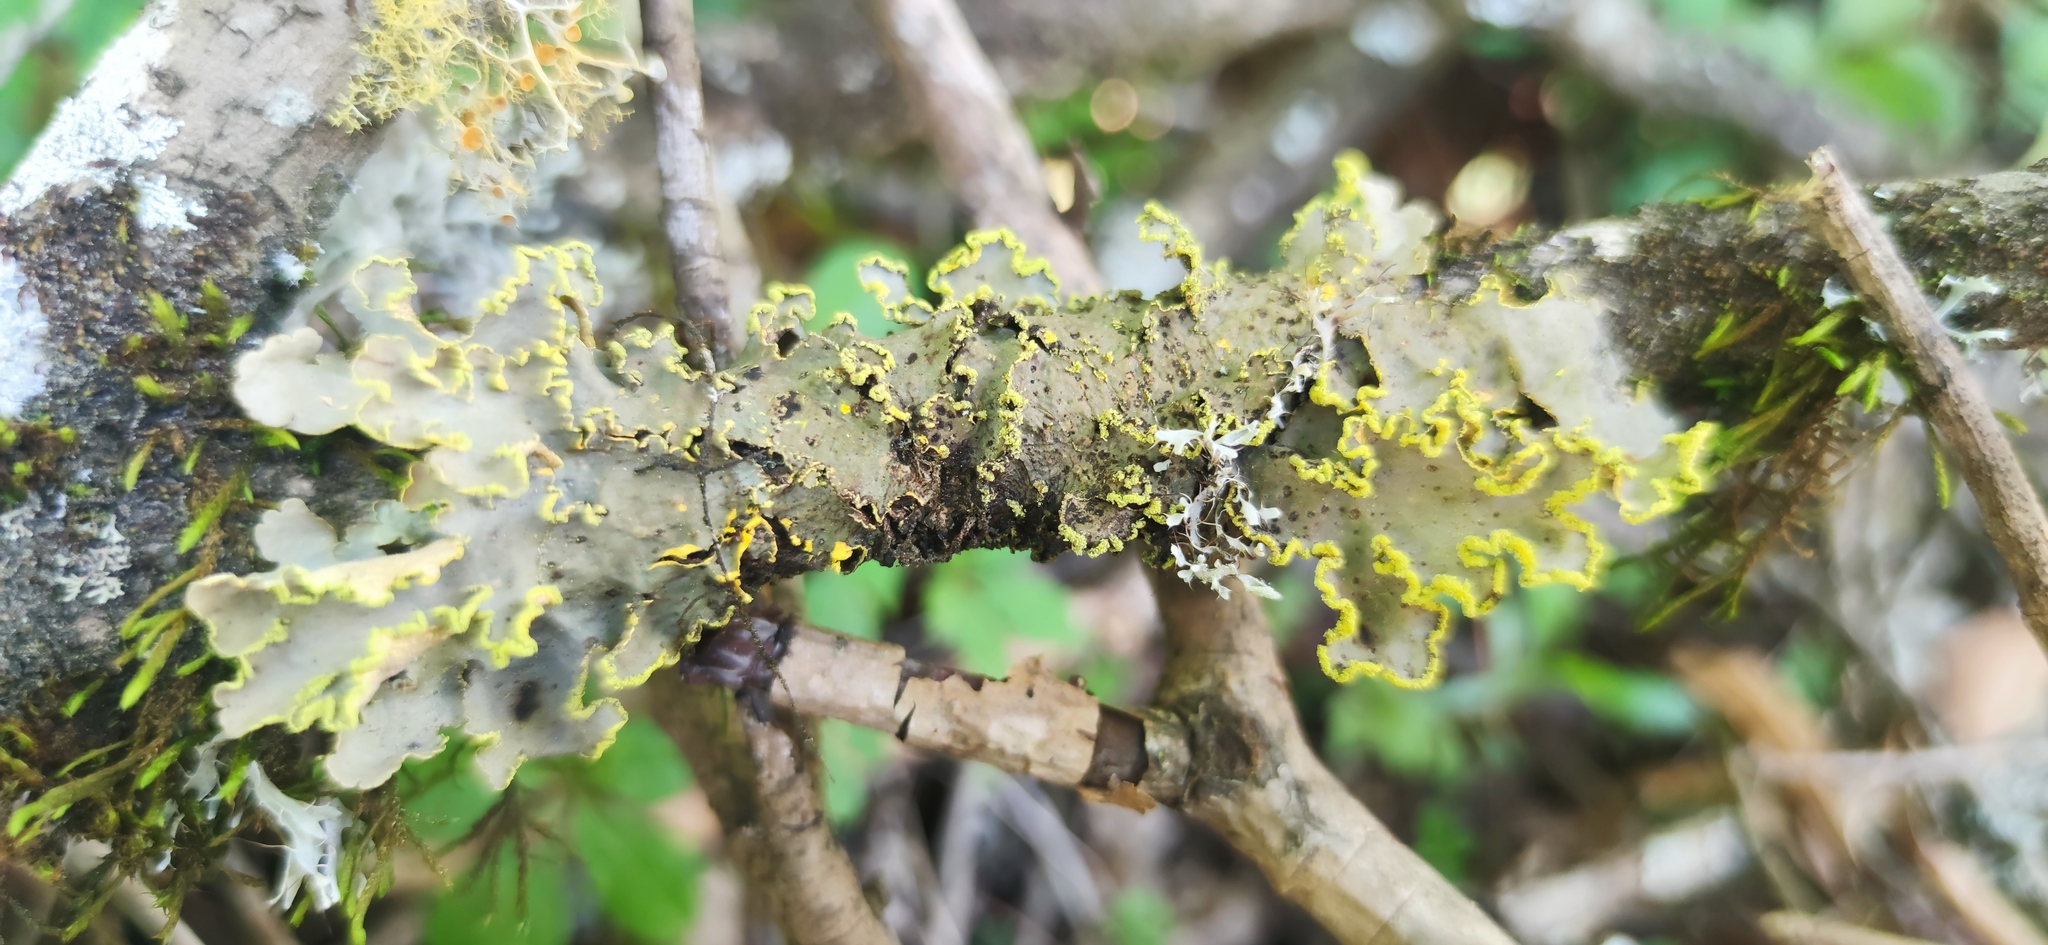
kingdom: Fungi
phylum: Ascomycota
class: Lecanoromycetes
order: Peltigerales
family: Lobariaceae
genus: Pseudocyphellaria
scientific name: Pseudocyphellaria aurata
